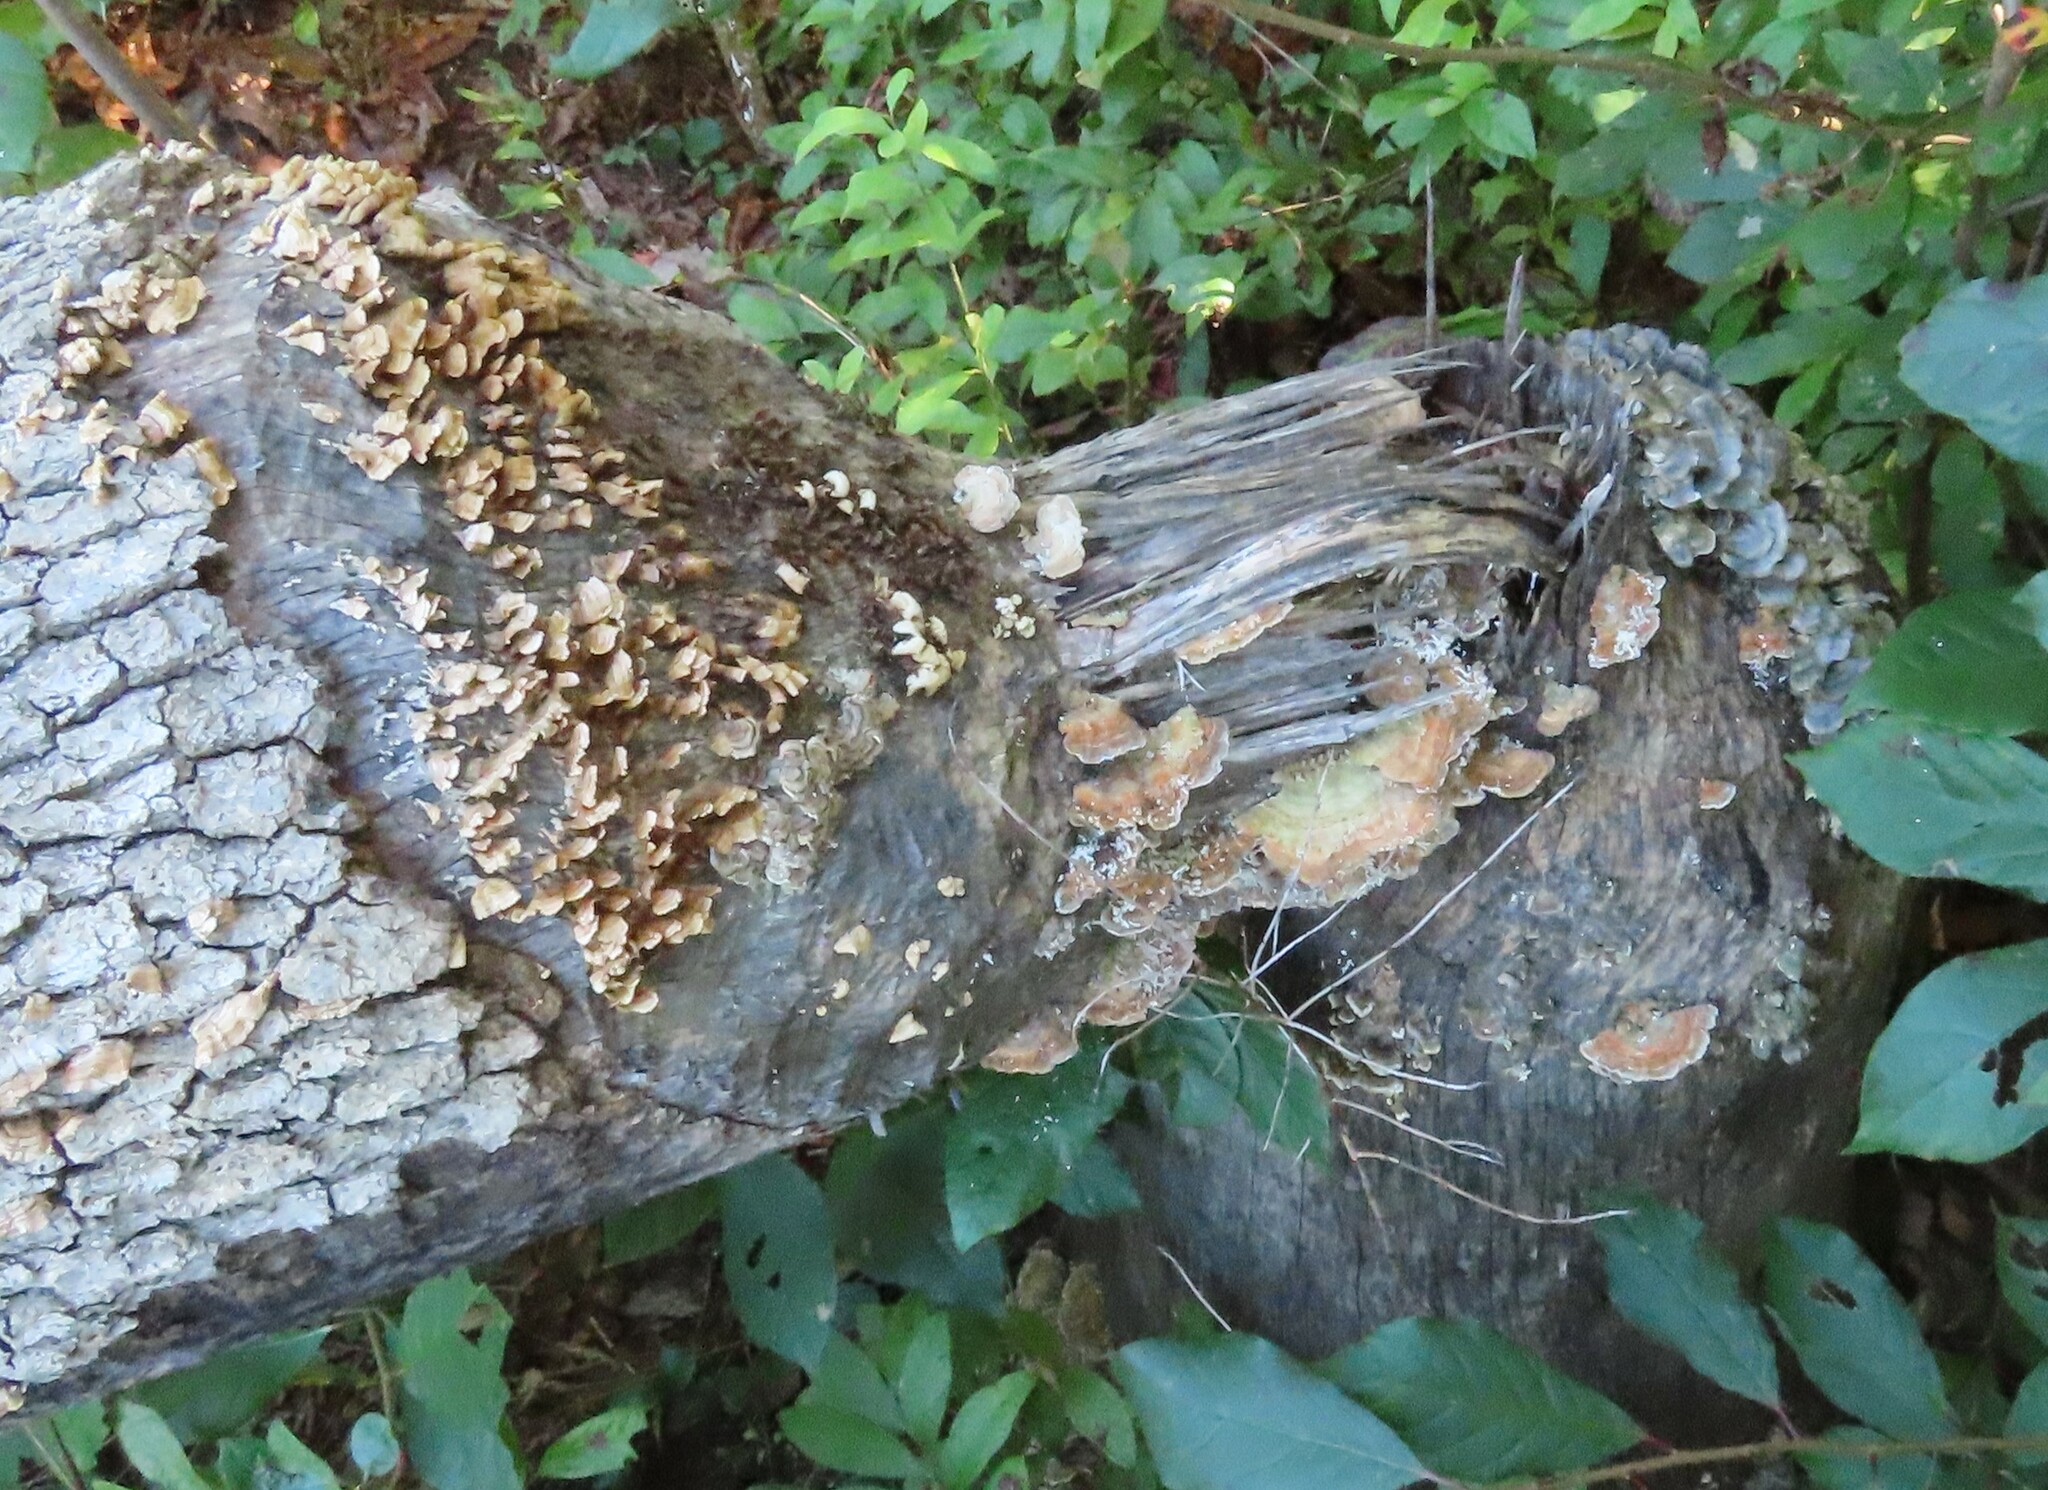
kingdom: Animalia
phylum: Chordata
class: Mammalia
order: Rodentia
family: Castoridae
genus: Castor
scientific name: Castor canadensis
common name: American beaver
